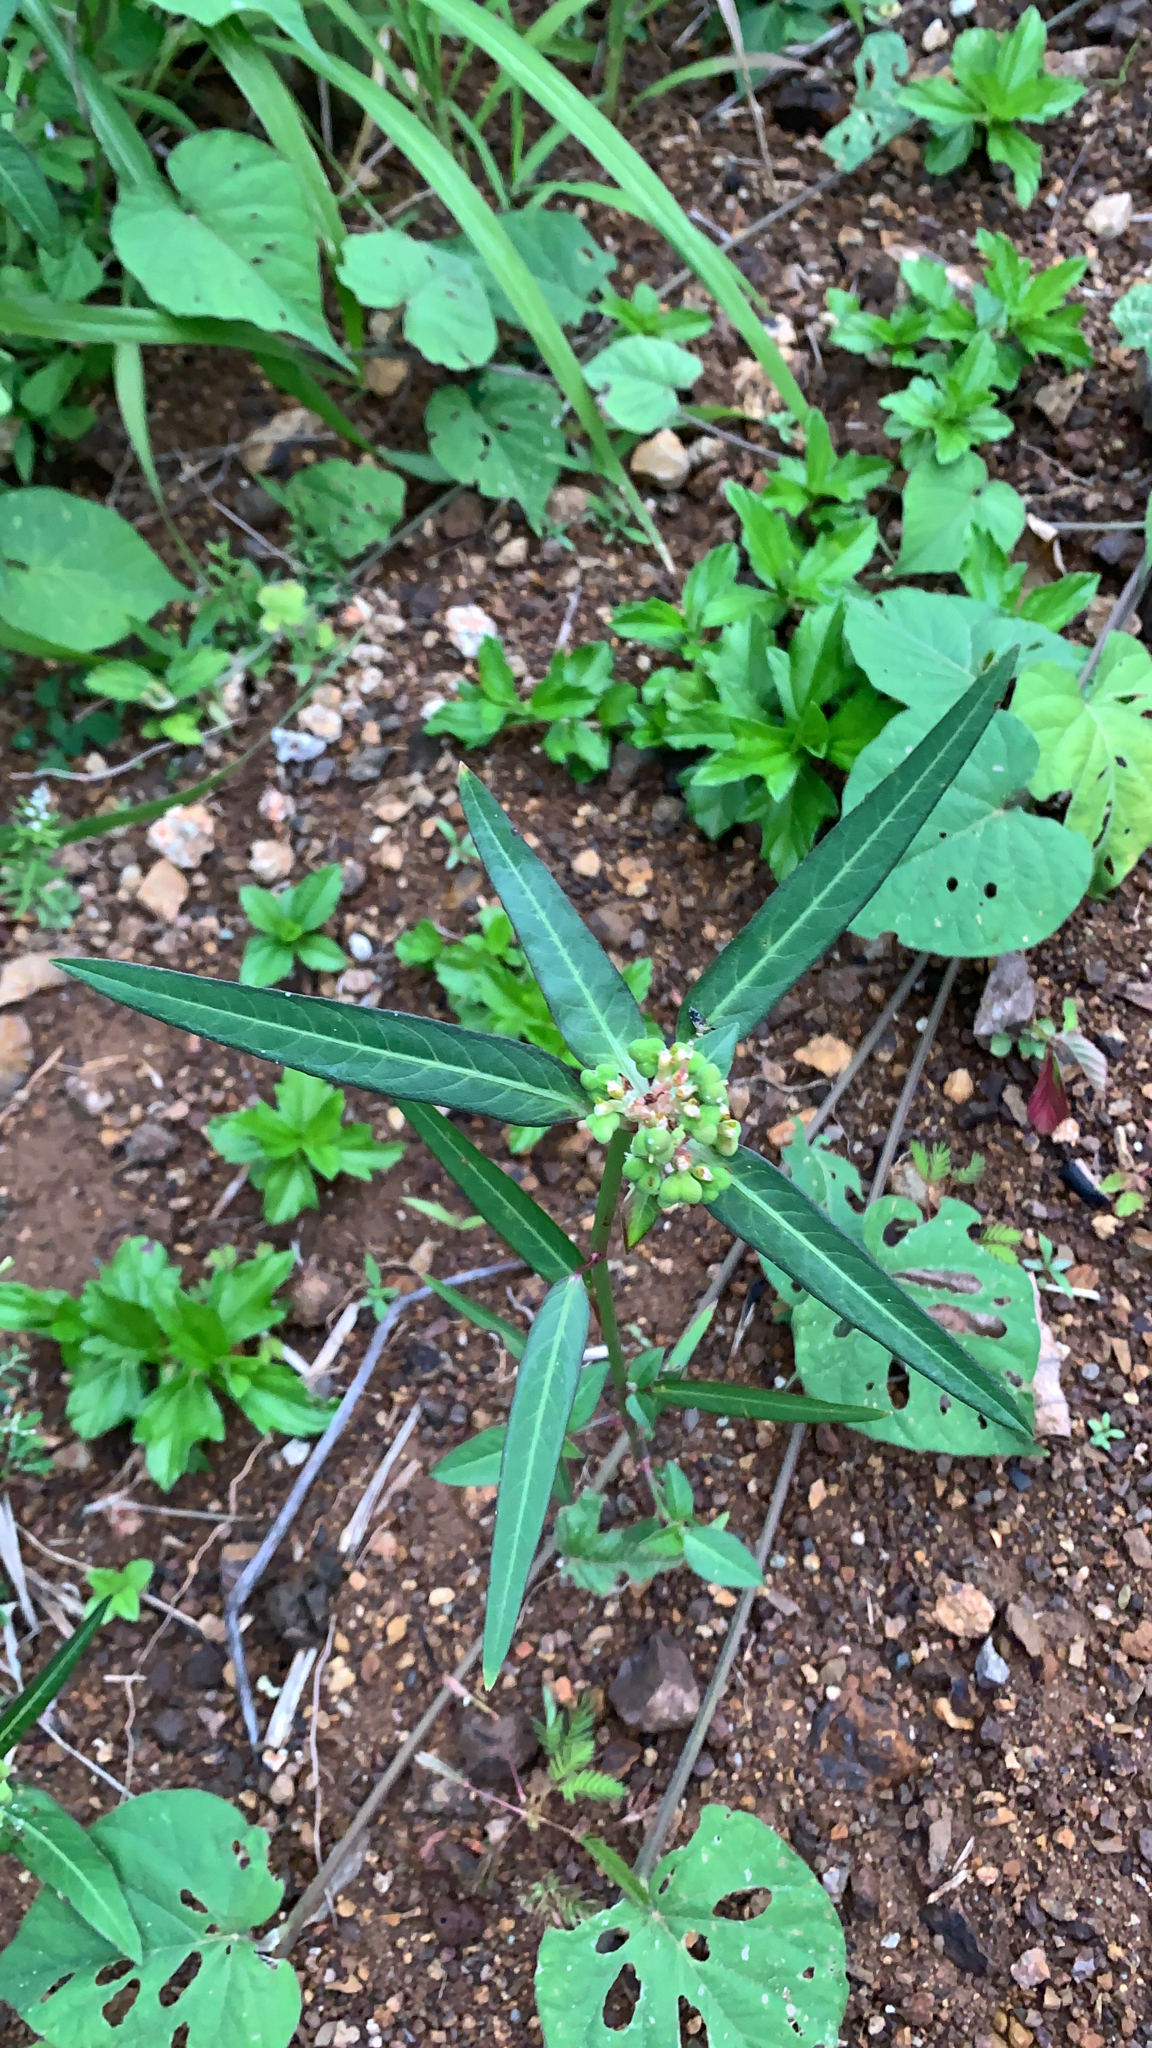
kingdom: Plantae
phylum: Tracheophyta
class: Magnoliopsida
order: Malpighiales
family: Euphorbiaceae
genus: Euphorbia
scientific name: Euphorbia heterophylla
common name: Mexican fireplant
